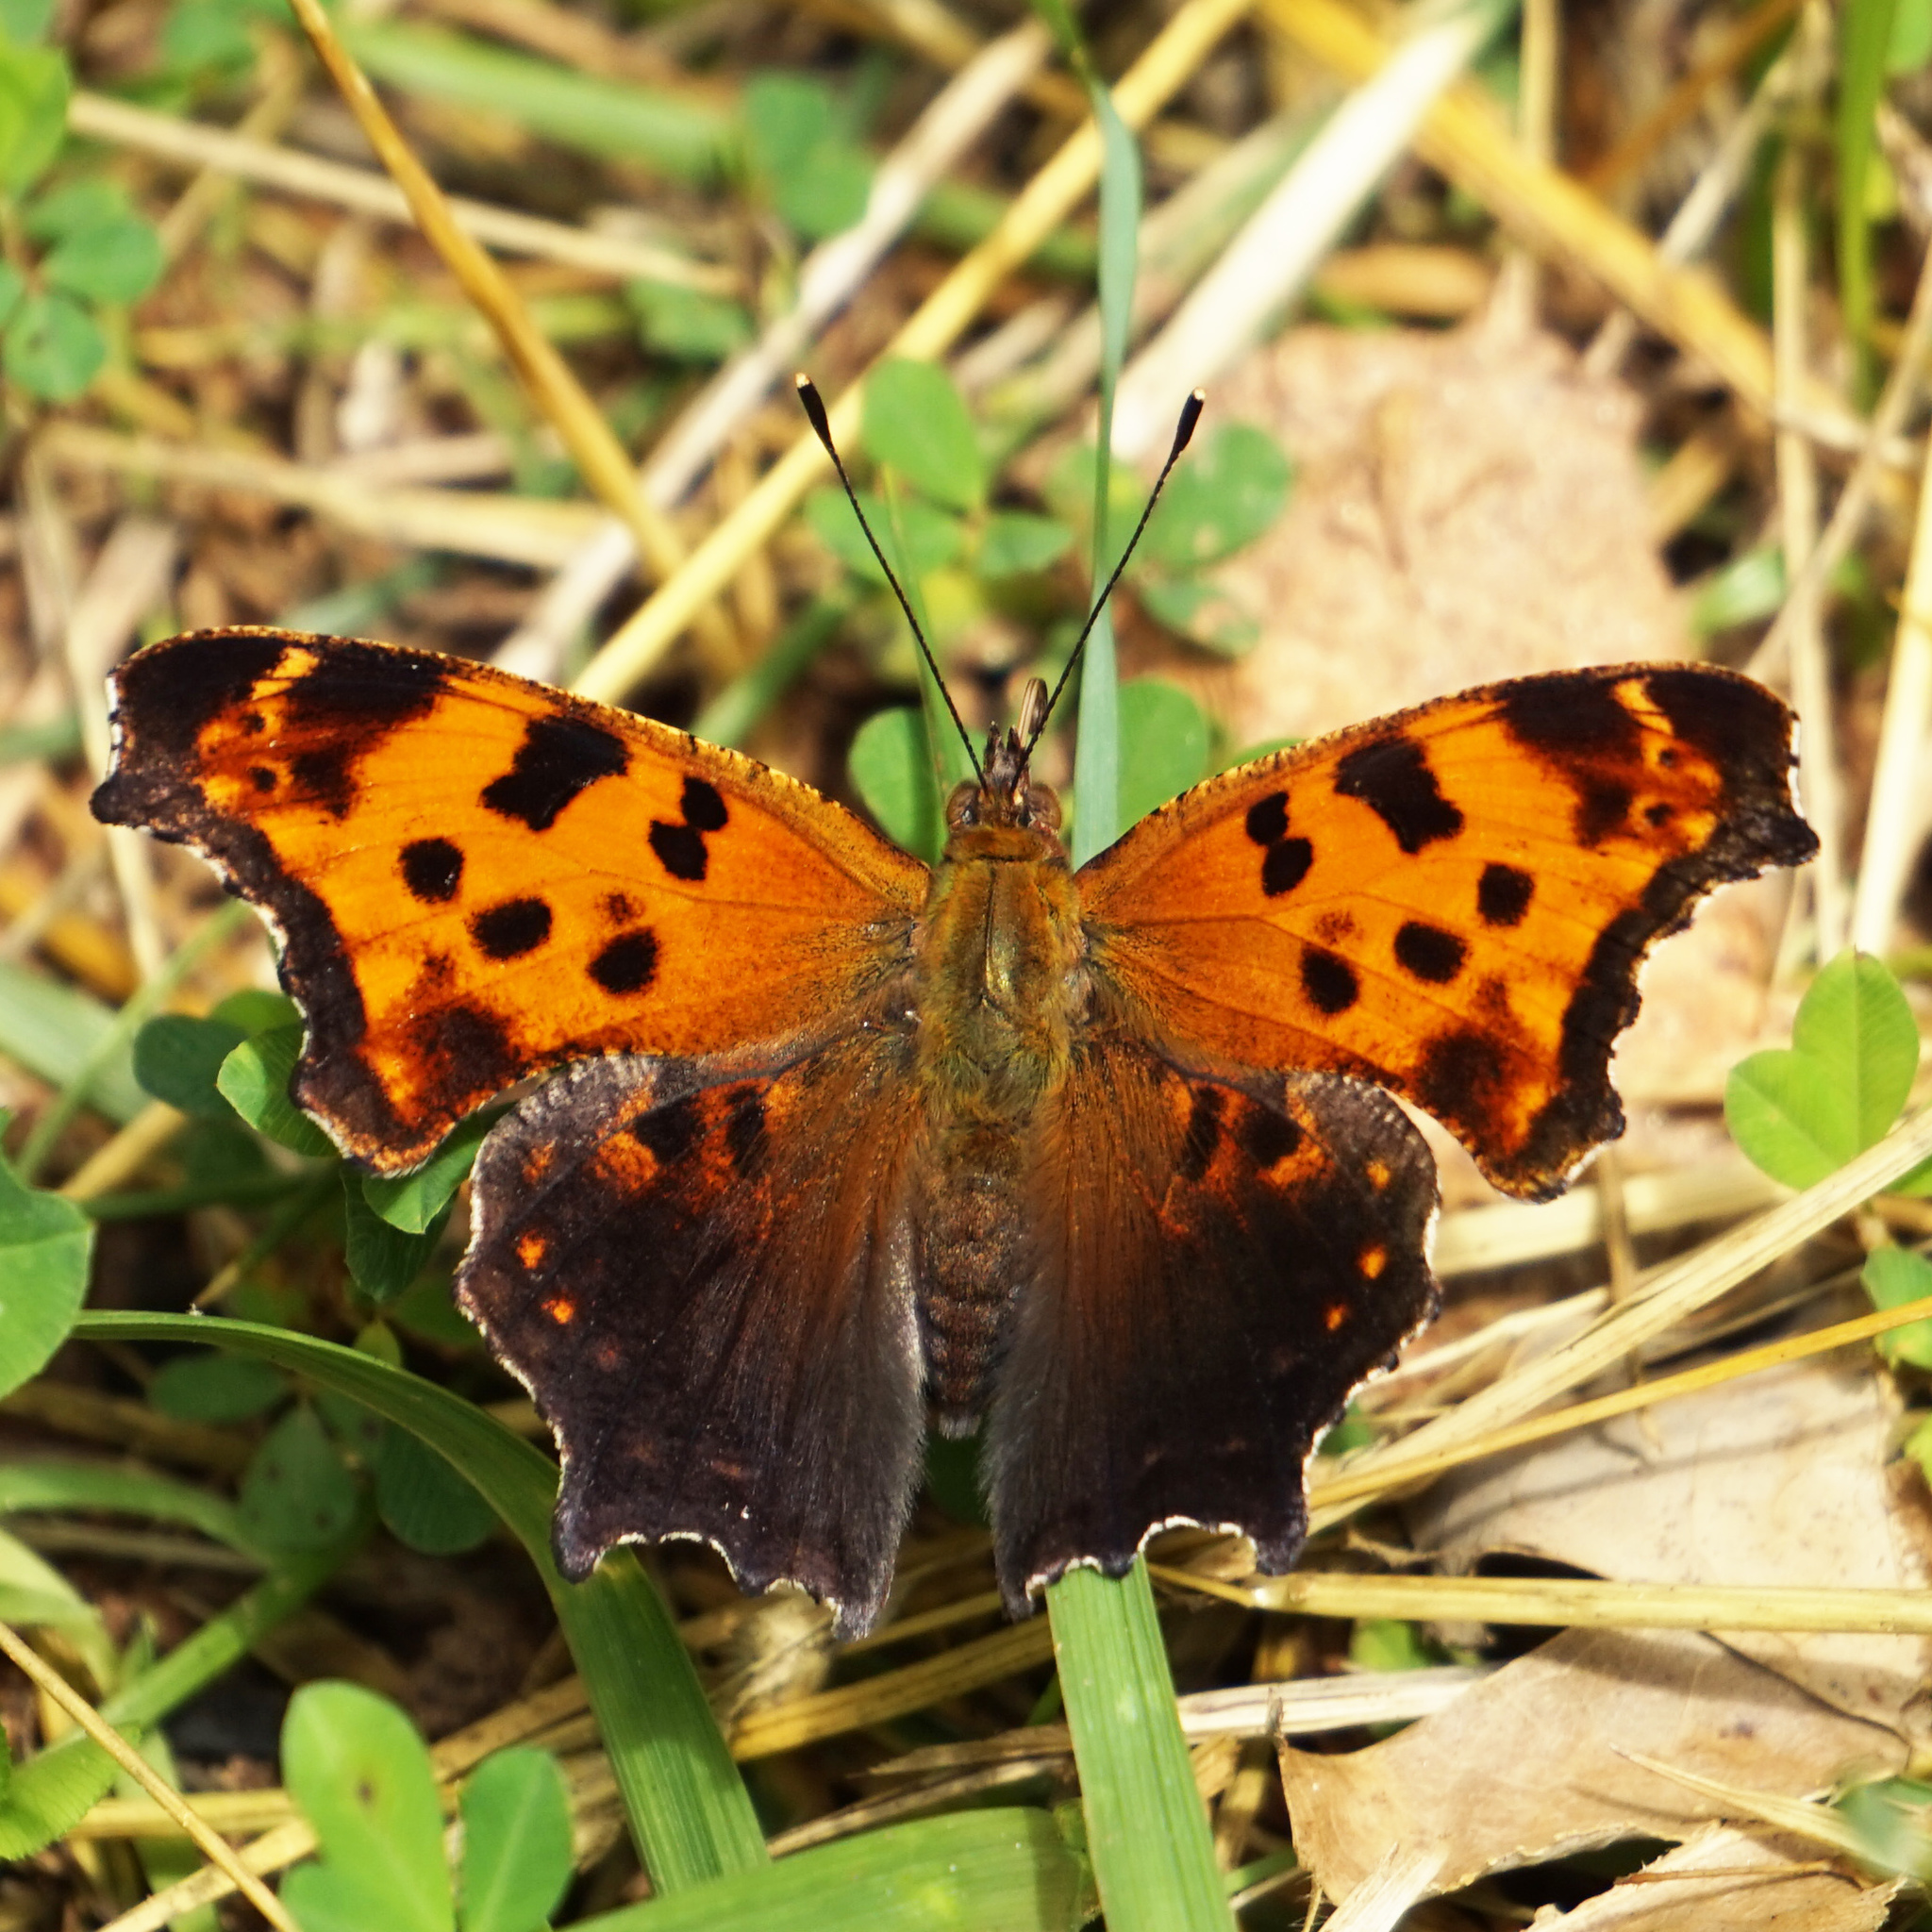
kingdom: Animalia
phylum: Arthropoda
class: Insecta
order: Lepidoptera
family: Nymphalidae
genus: Polygonia
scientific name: Polygonia comma
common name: Eastern comma
